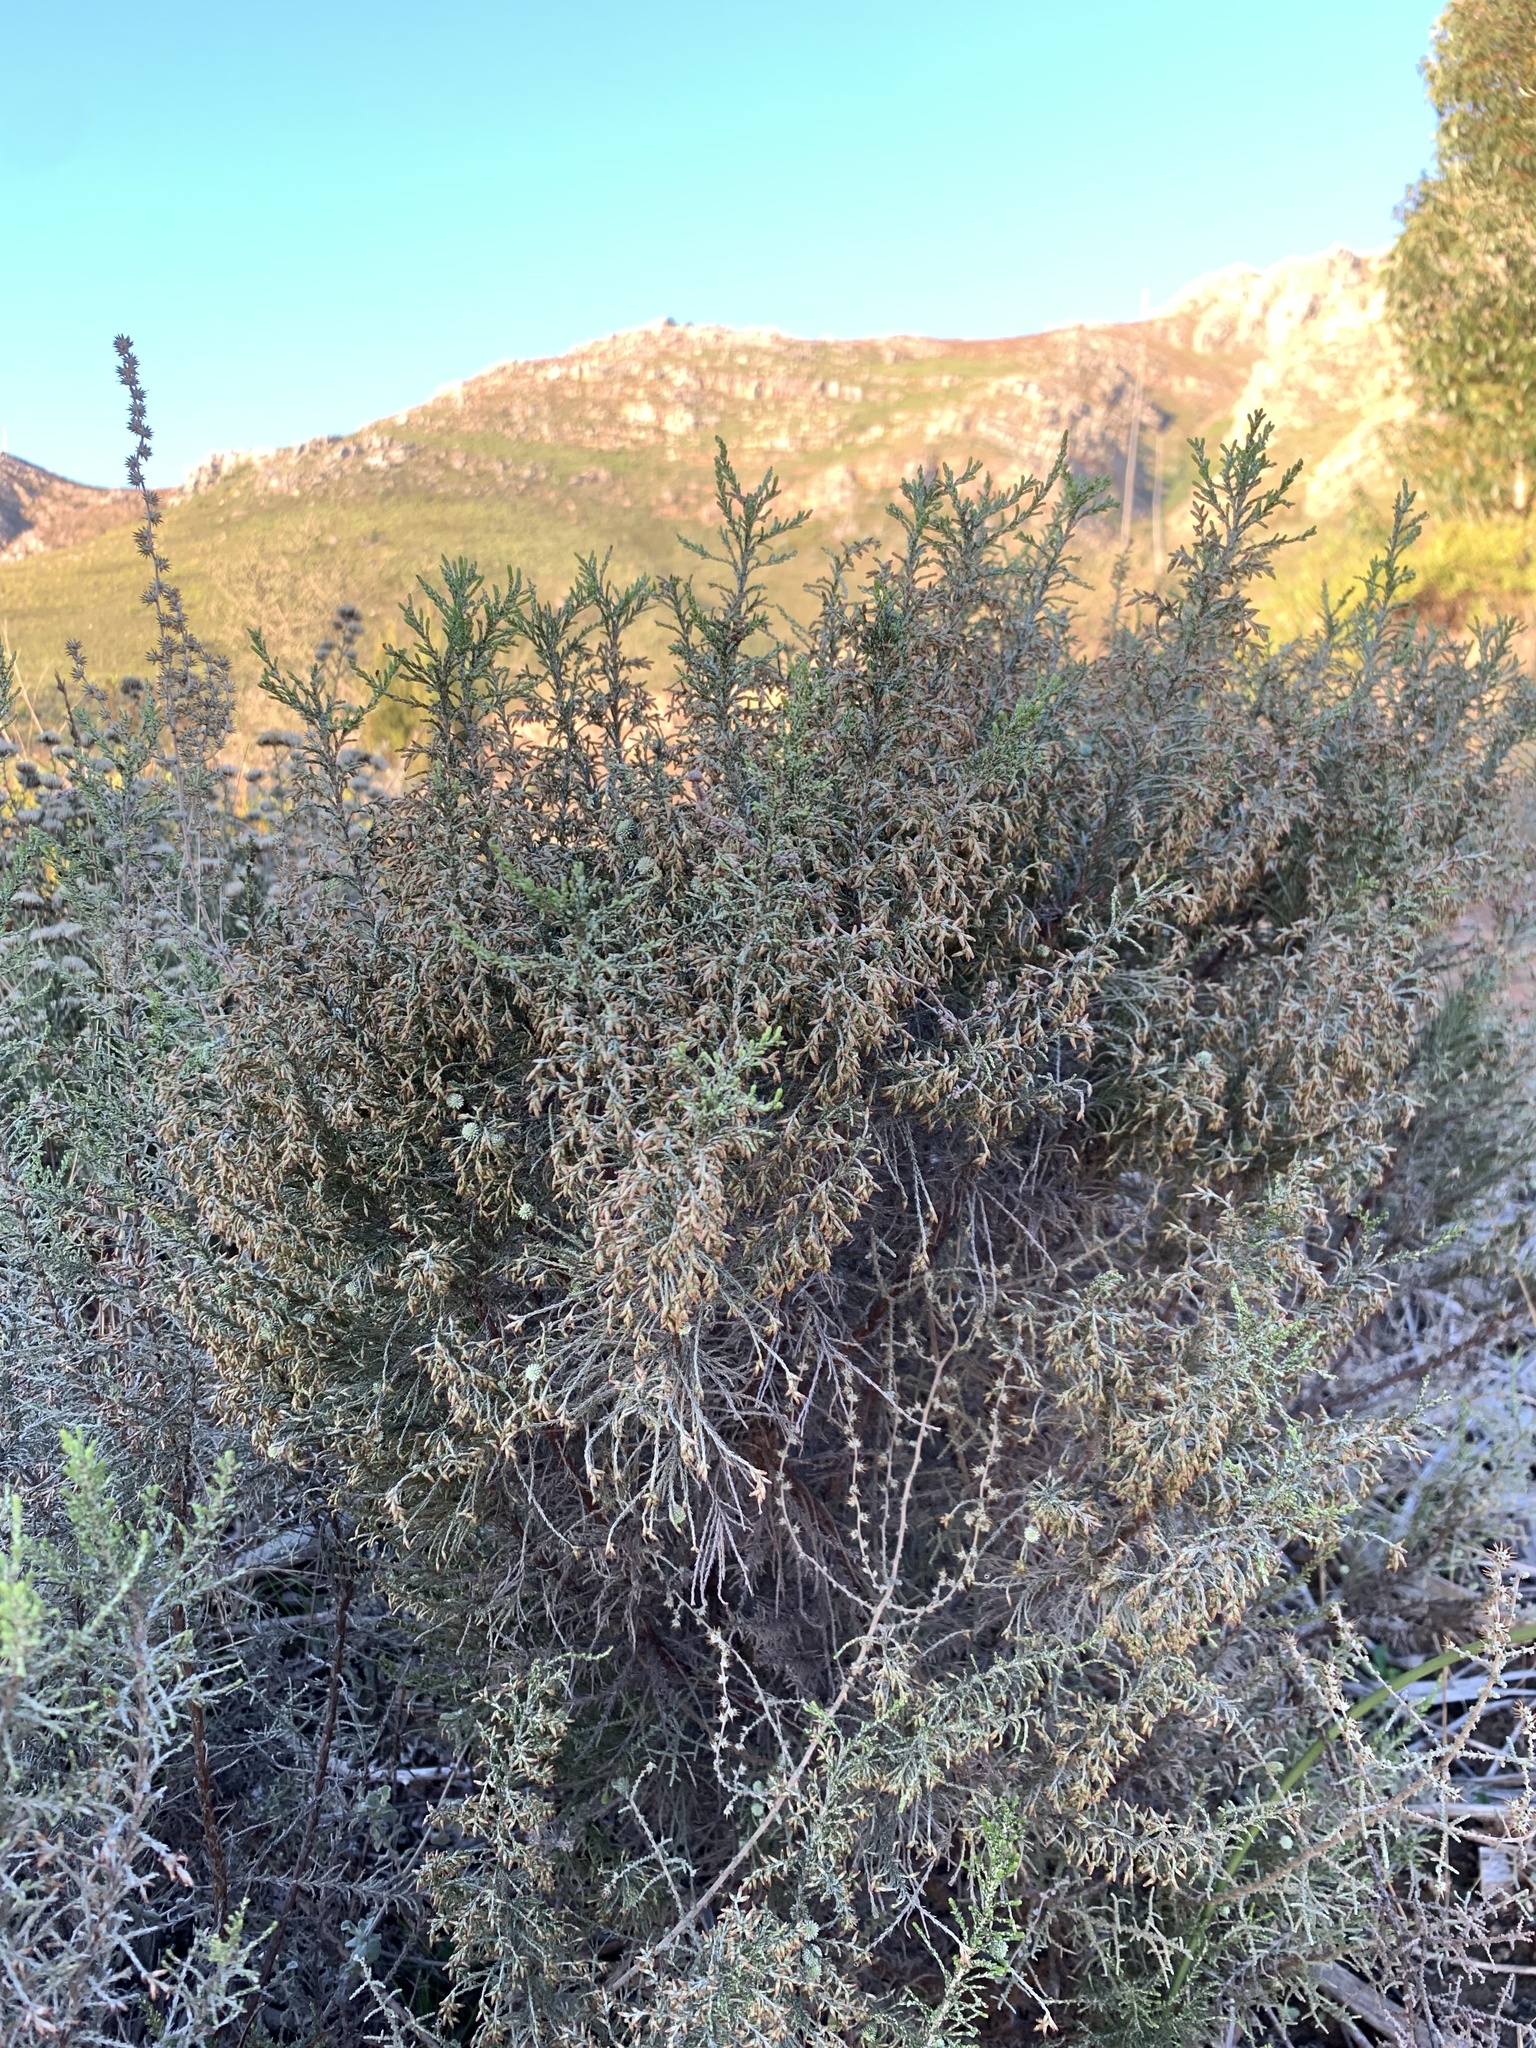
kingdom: Plantae
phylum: Tracheophyta
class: Magnoliopsida
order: Asterales
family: Asteraceae
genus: Dicerothamnus
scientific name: Dicerothamnus rhinocerotis
